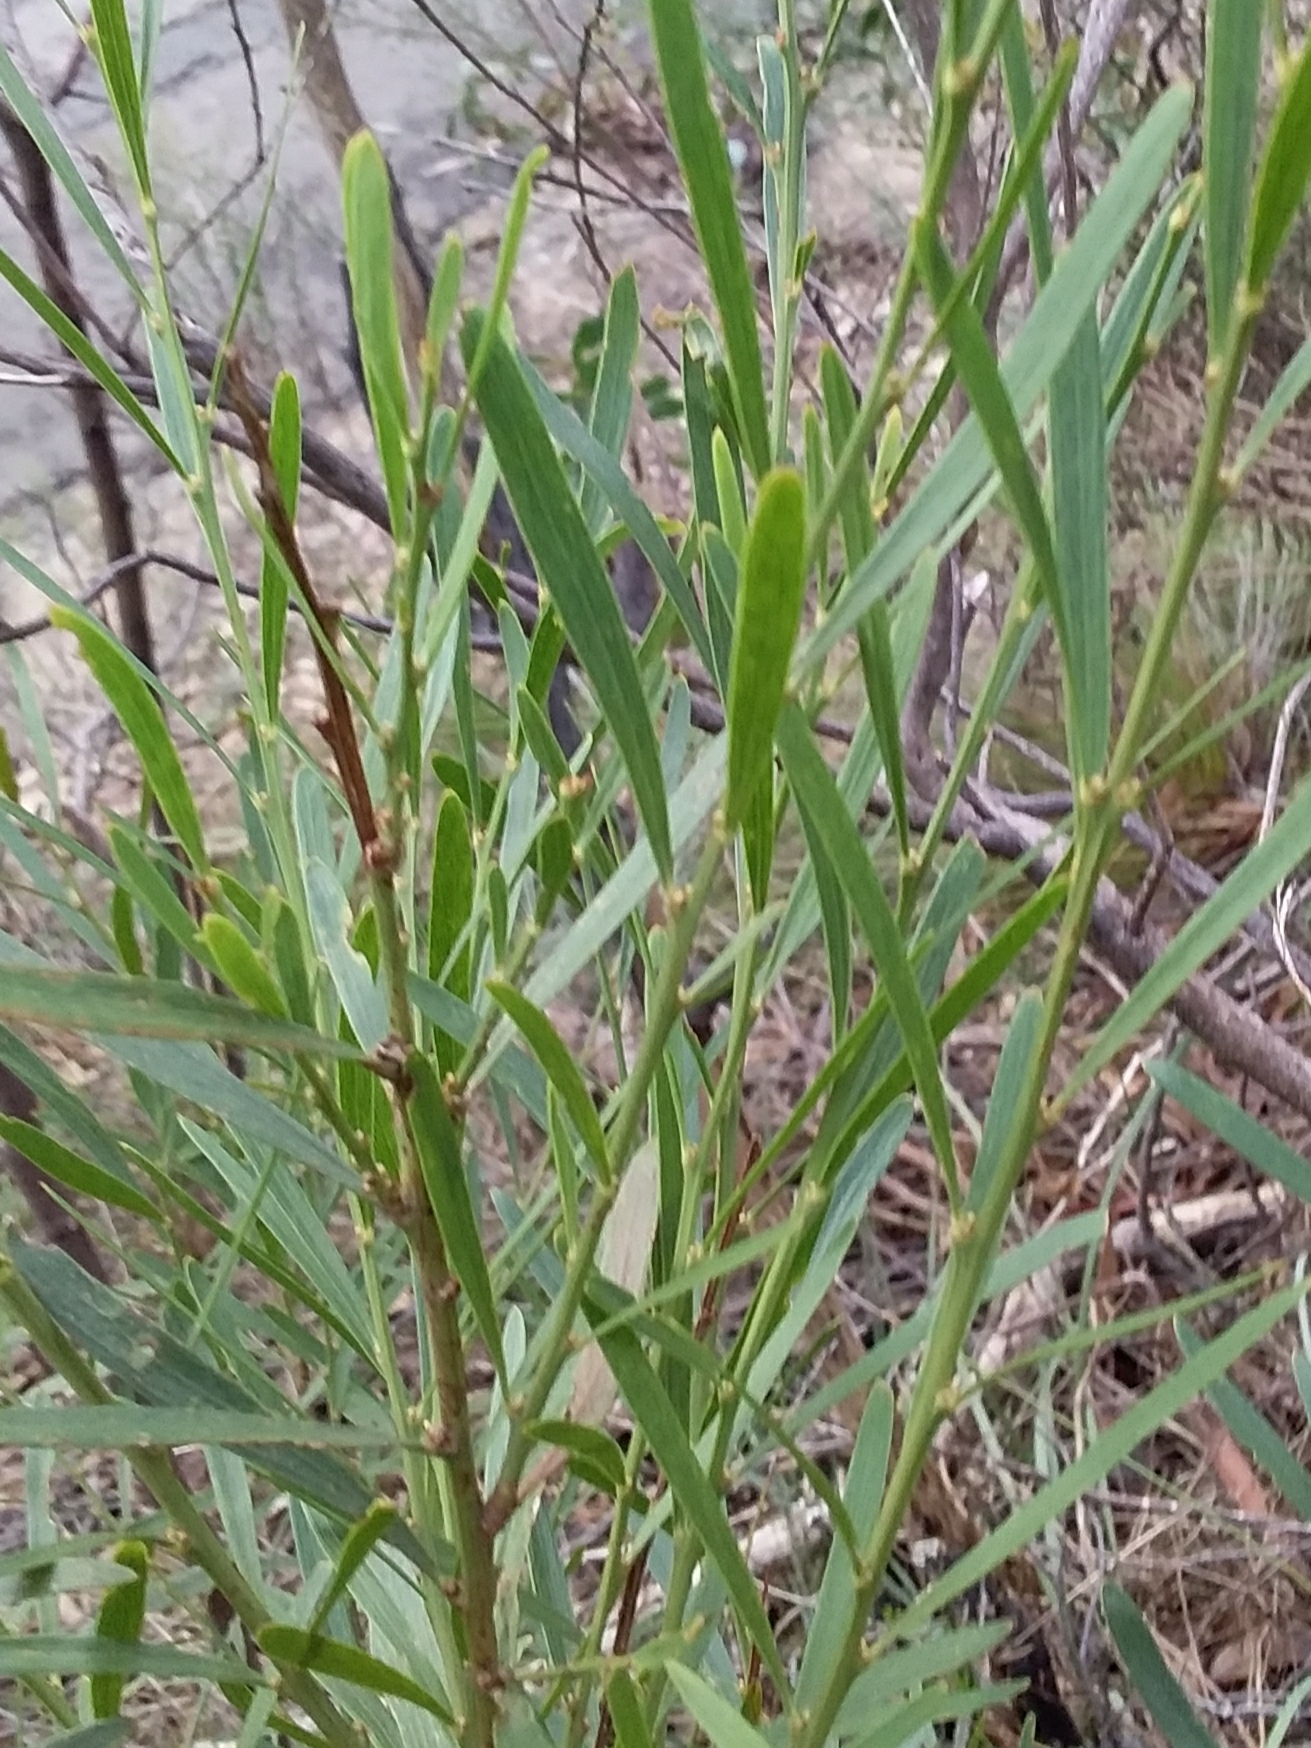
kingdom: Plantae
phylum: Tracheophyta
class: Magnoliopsida
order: Fabales
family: Fabaceae
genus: Daviesia
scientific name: Daviesia leptophylla
